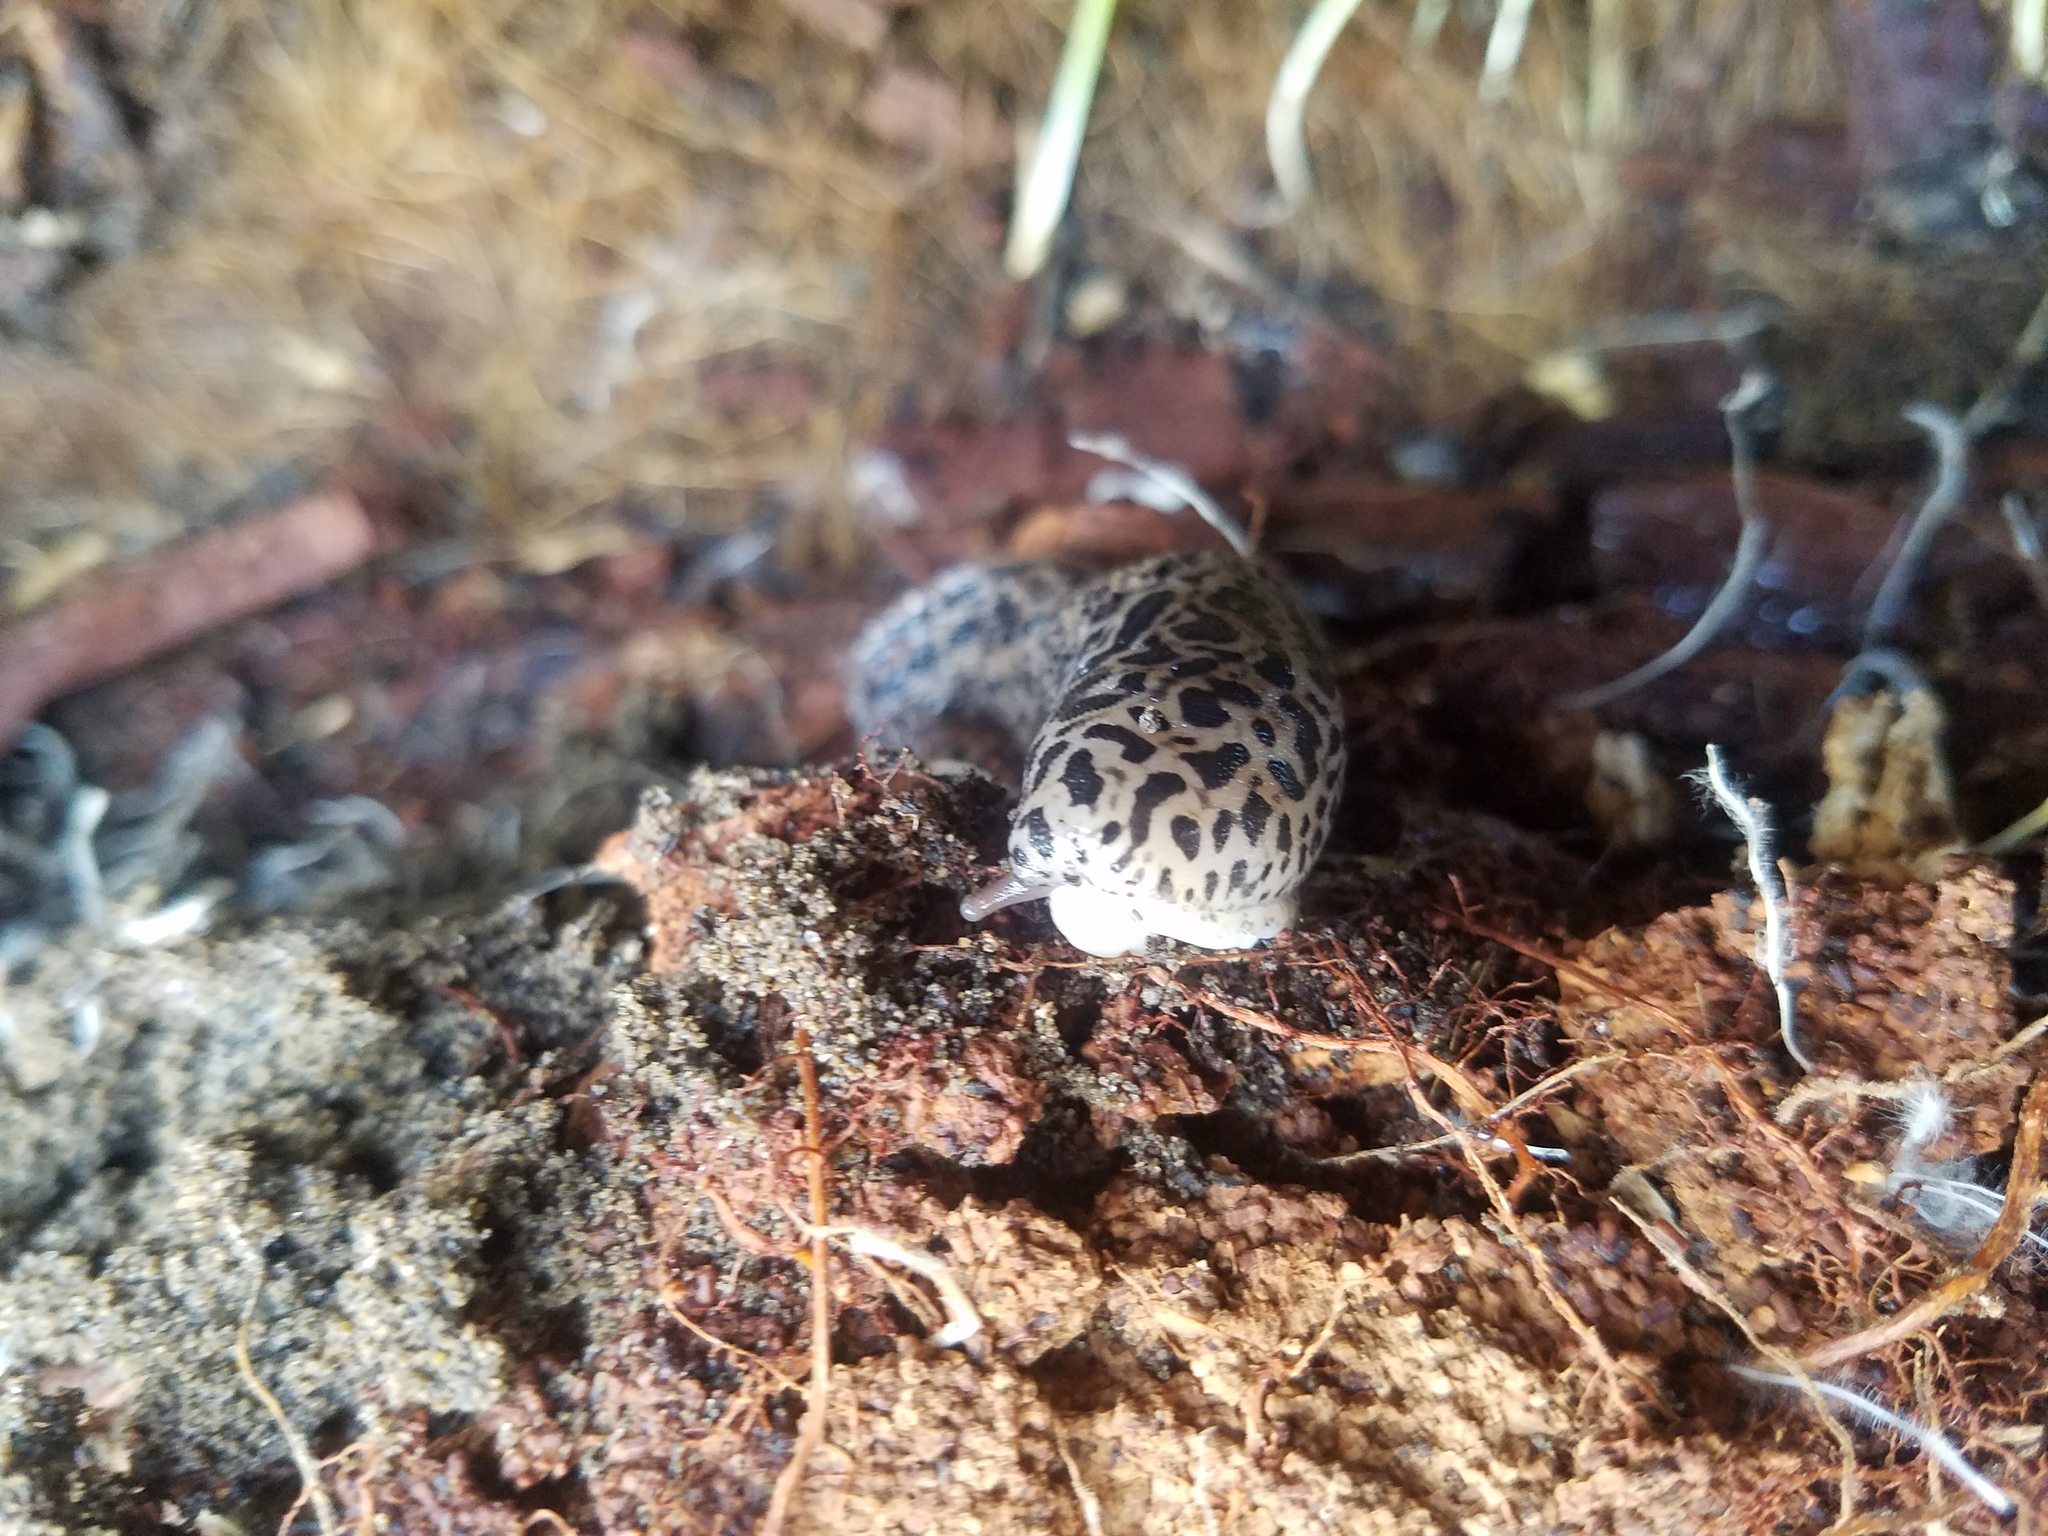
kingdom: Animalia
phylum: Mollusca
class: Gastropoda
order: Stylommatophora
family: Limacidae
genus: Limax
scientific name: Limax maximus
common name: Great grey slug
